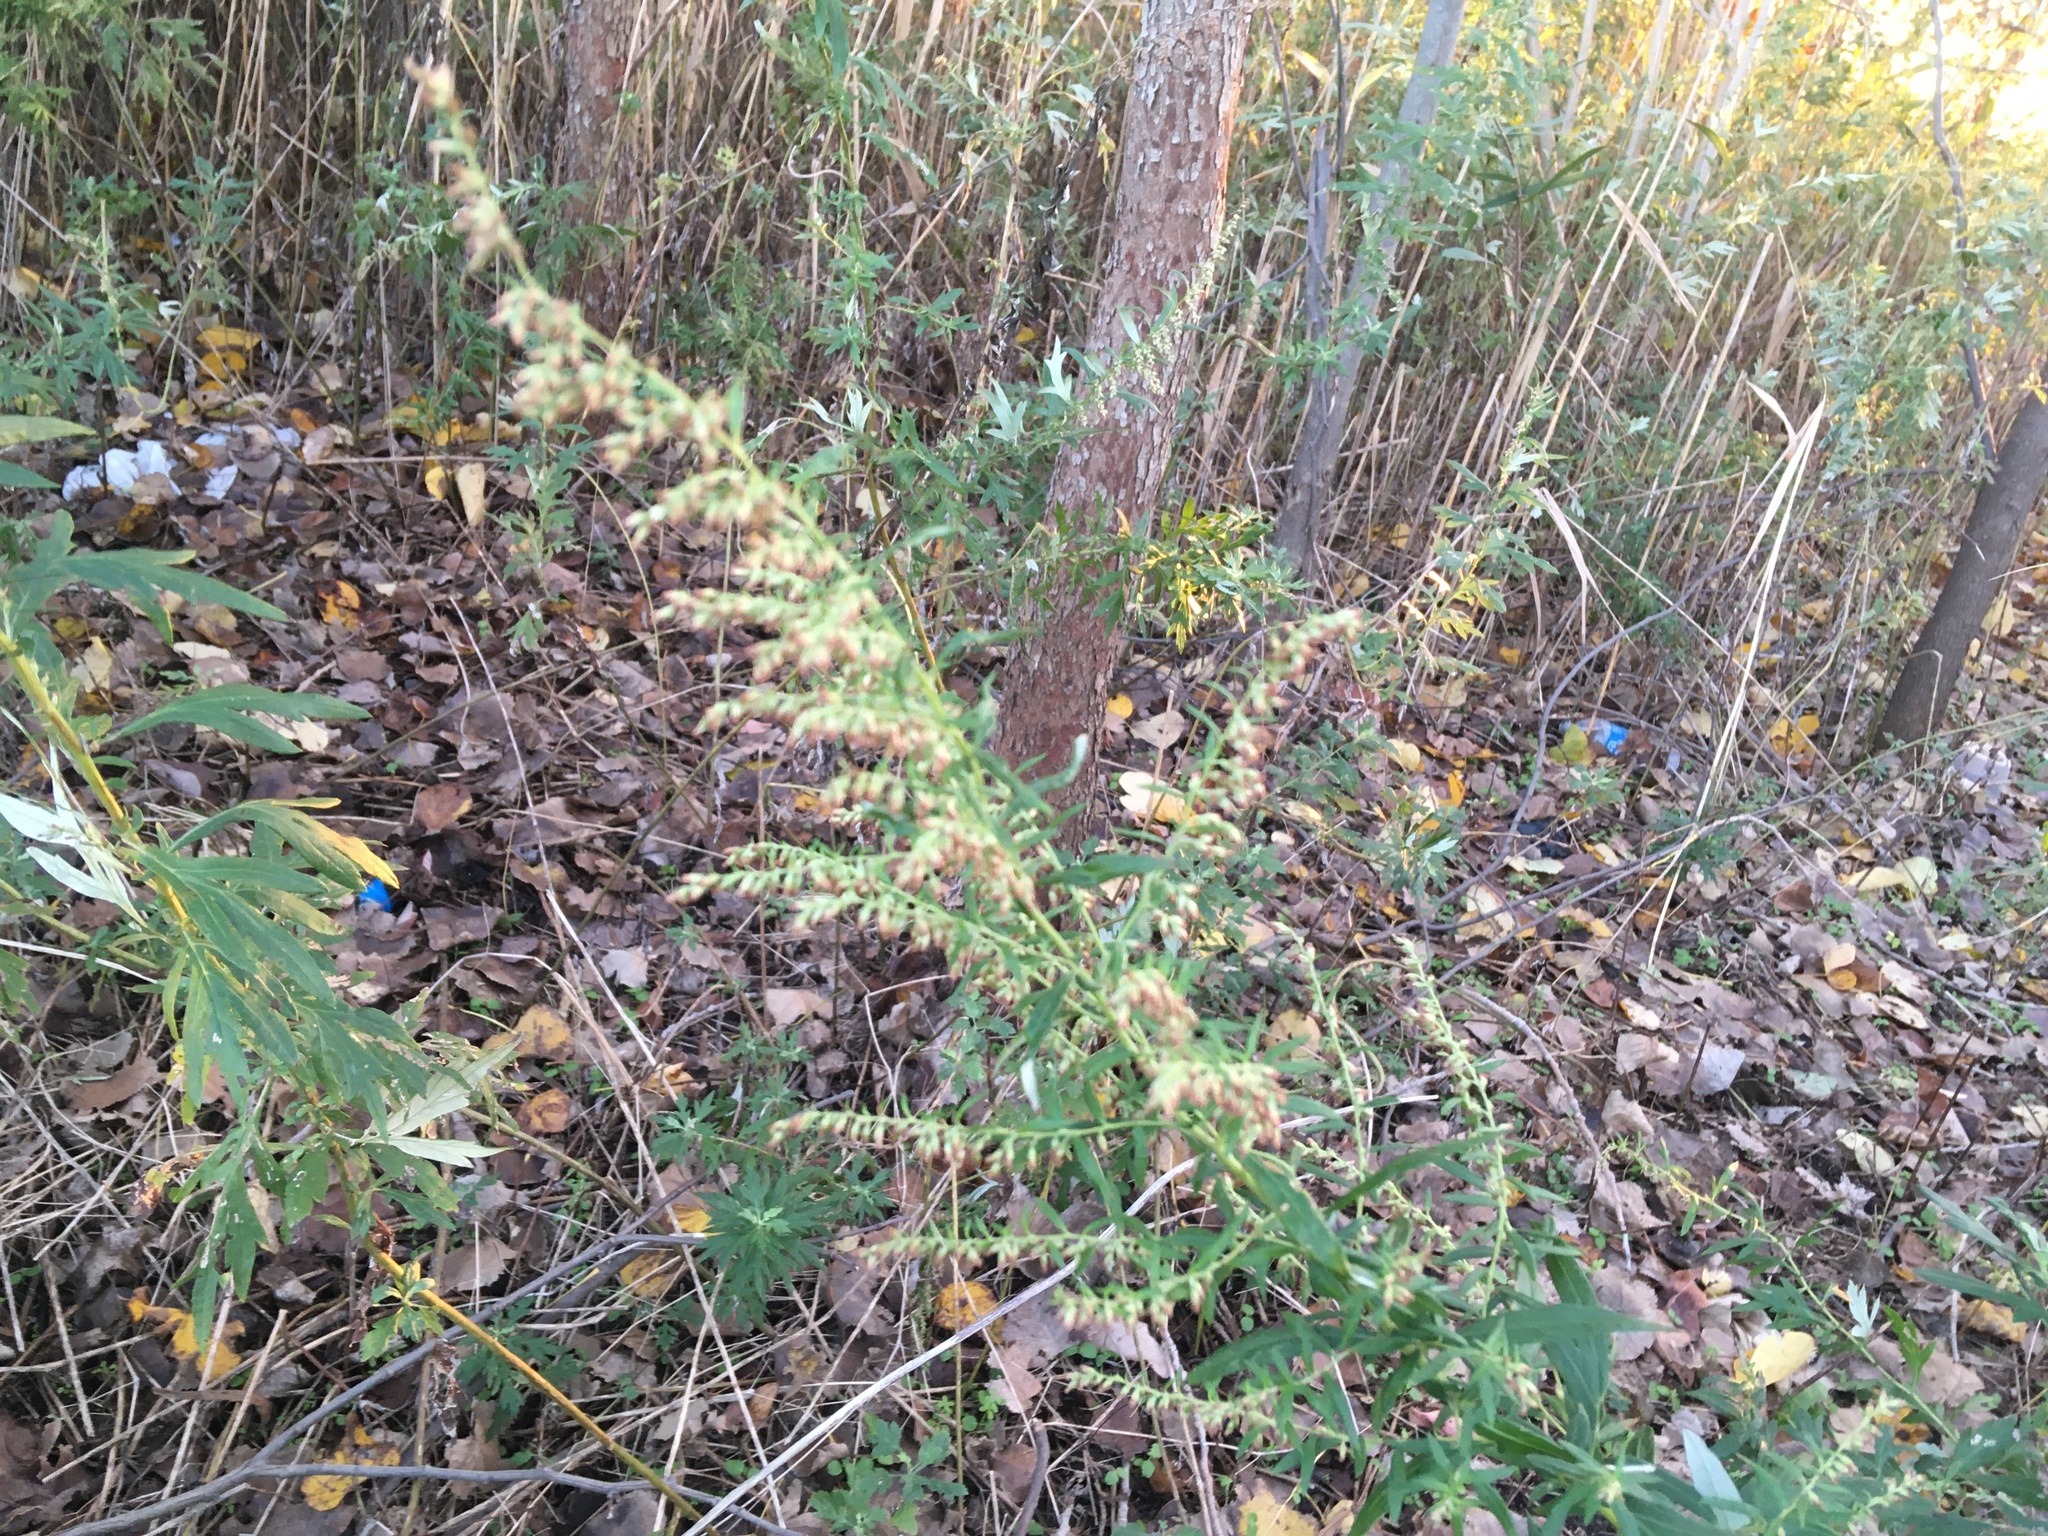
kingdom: Plantae
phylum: Tracheophyta
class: Magnoliopsida
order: Asterales
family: Asteraceae
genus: Artemisia
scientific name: Artemisia vulgaris
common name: Mugwort
